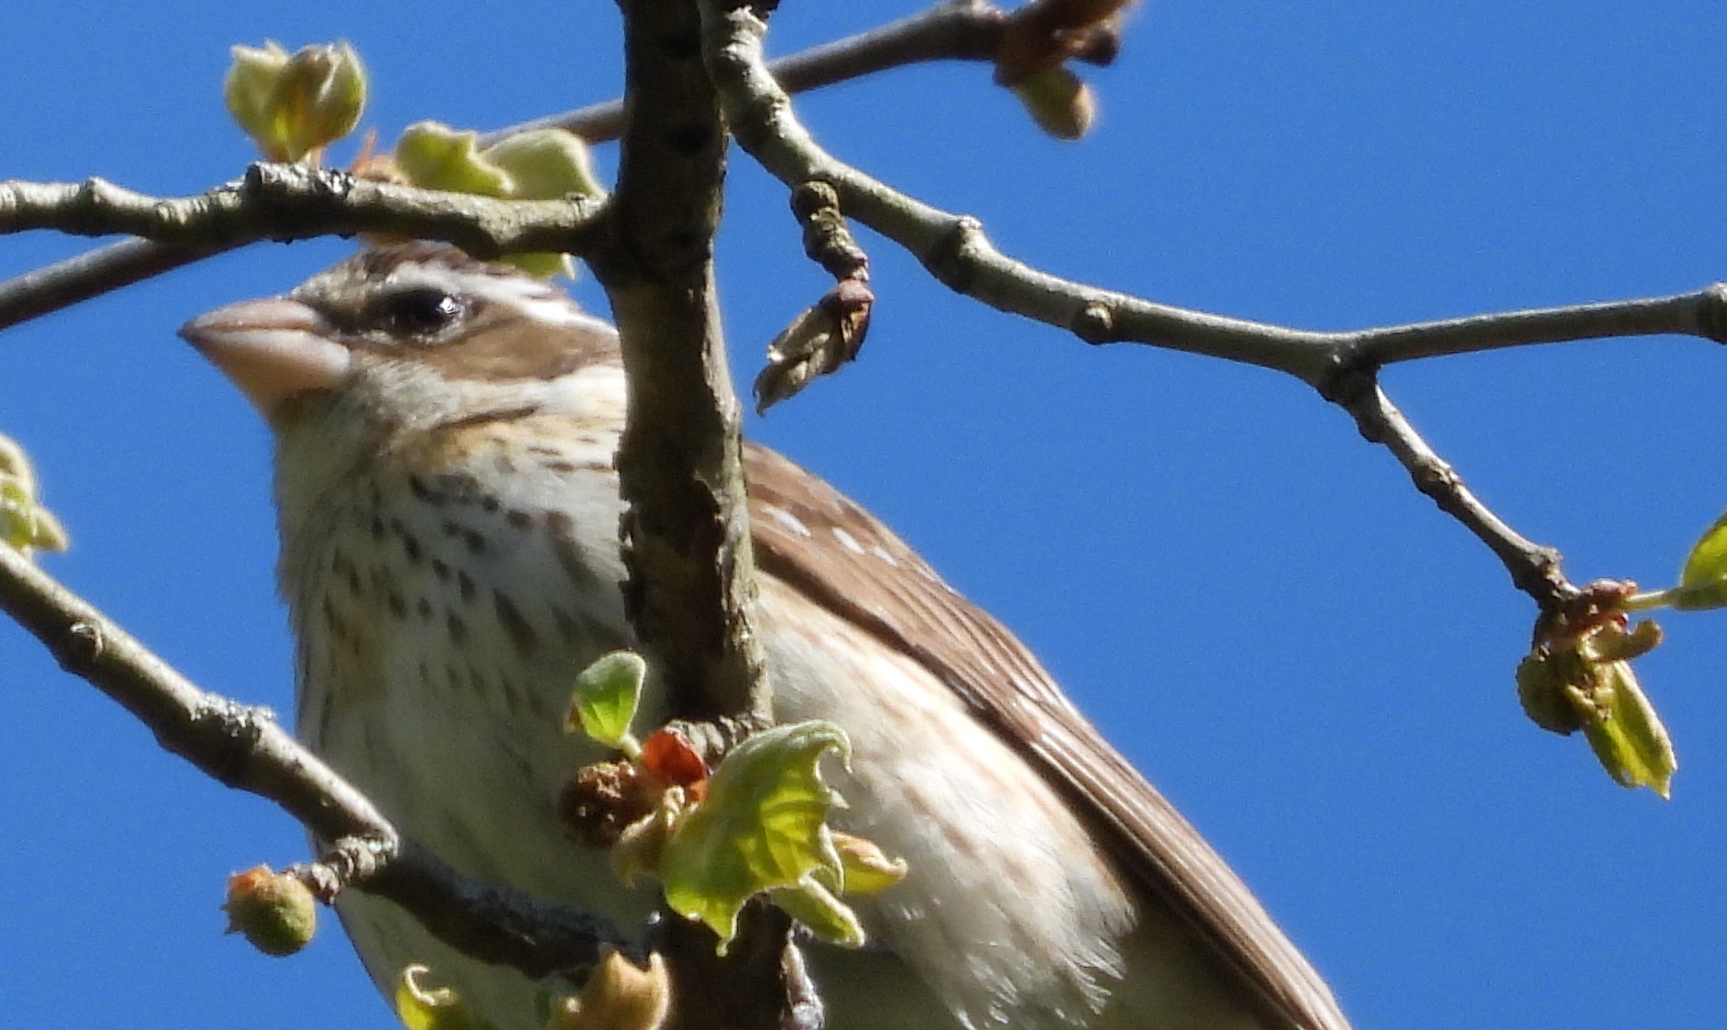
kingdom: Animalia
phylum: Chordata
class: Aves
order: Passeriformes
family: Cardinalidae
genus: Pheucticus
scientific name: Pheucticus ludovicianus
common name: Rose-breasted grosbeak
